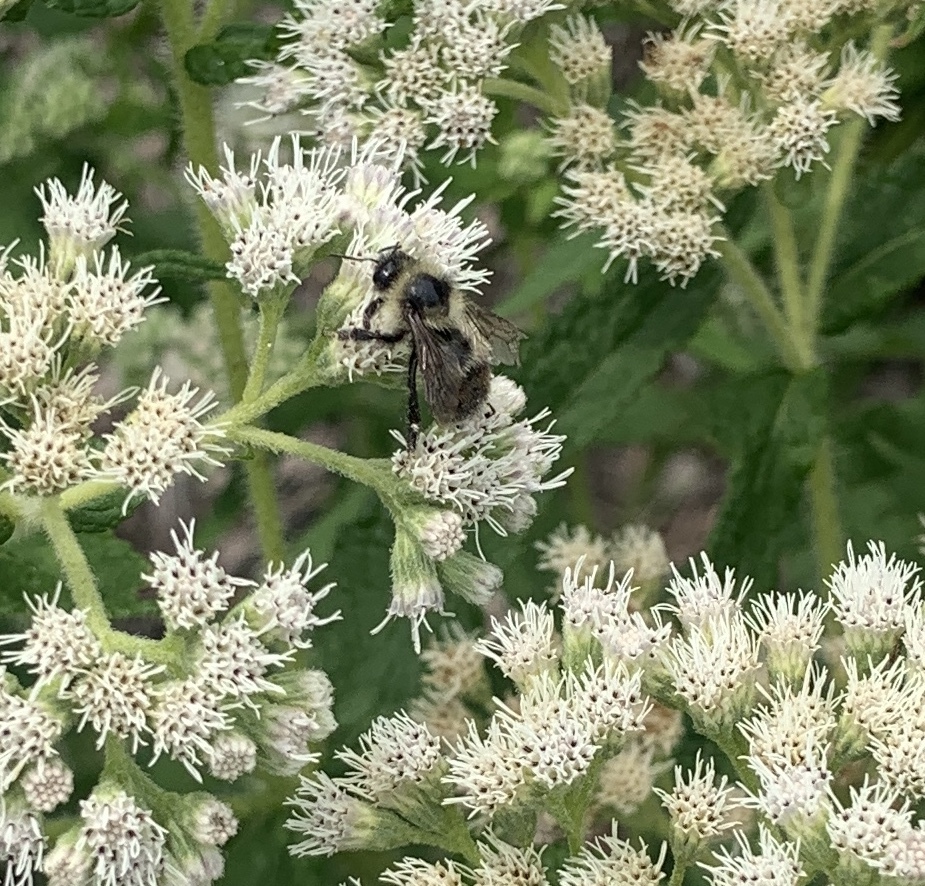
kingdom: Animalia
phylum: Arthropoda
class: Insecta
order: Hymenoptera
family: Apidae
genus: Bombus
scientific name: Bombus rufocinctus
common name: Red-belted bumble bee
